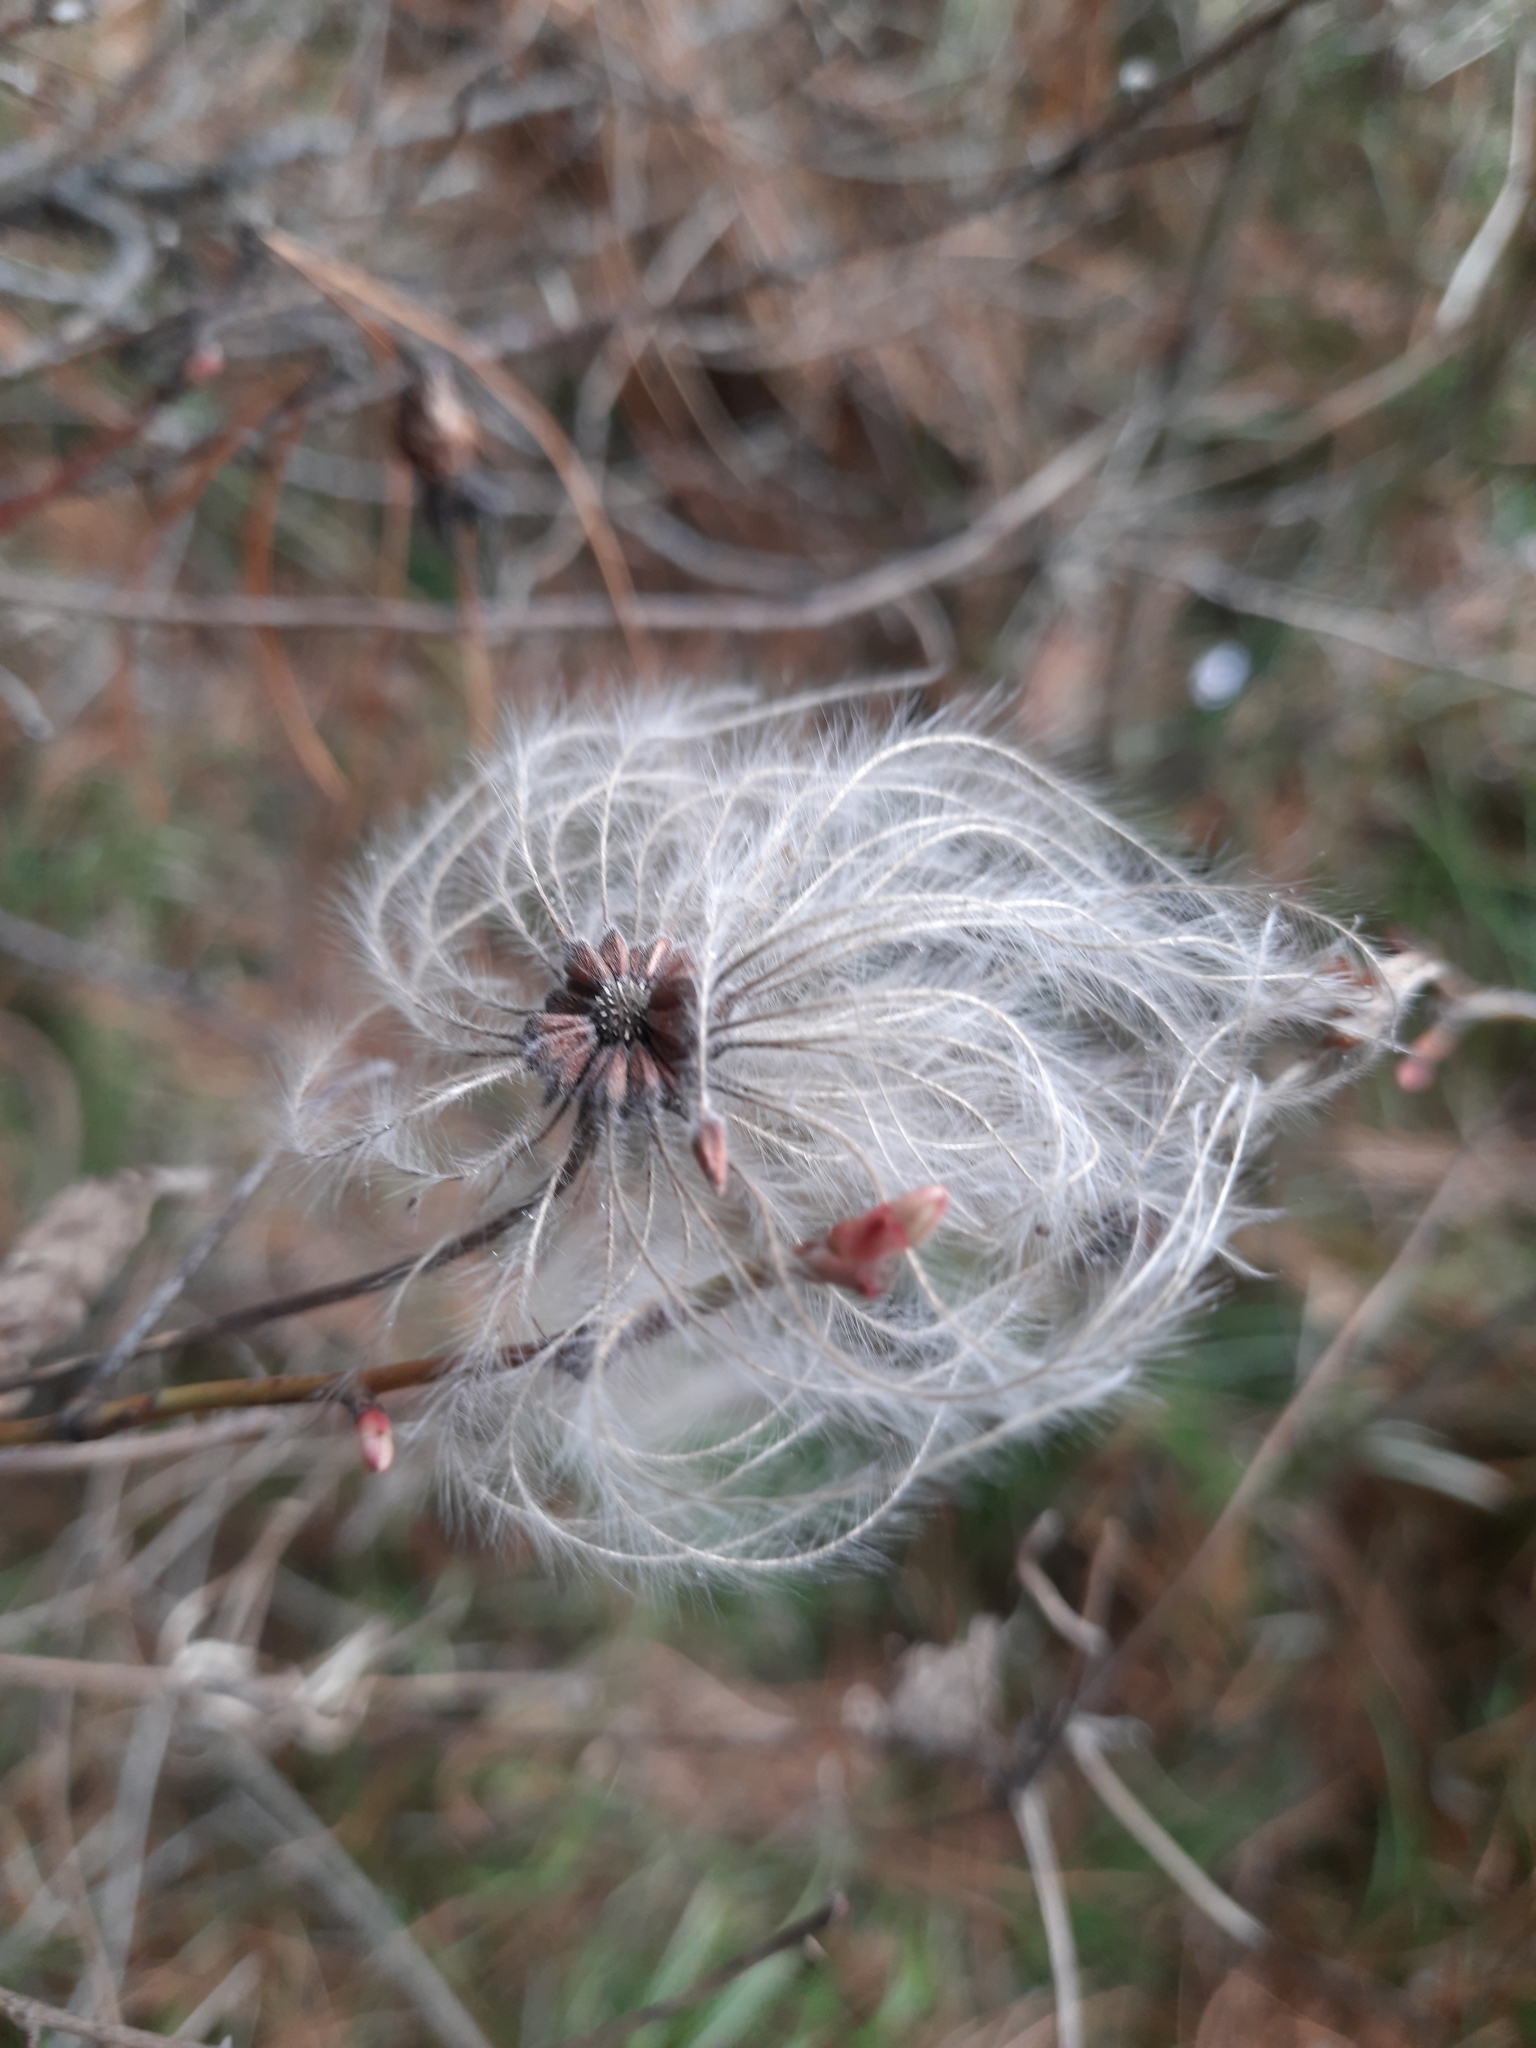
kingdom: Plantae
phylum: Tracheophyta
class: Magnoliopsida
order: Ranunculales
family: Ranunculaceae
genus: Clematis
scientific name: Clematis sibirica
